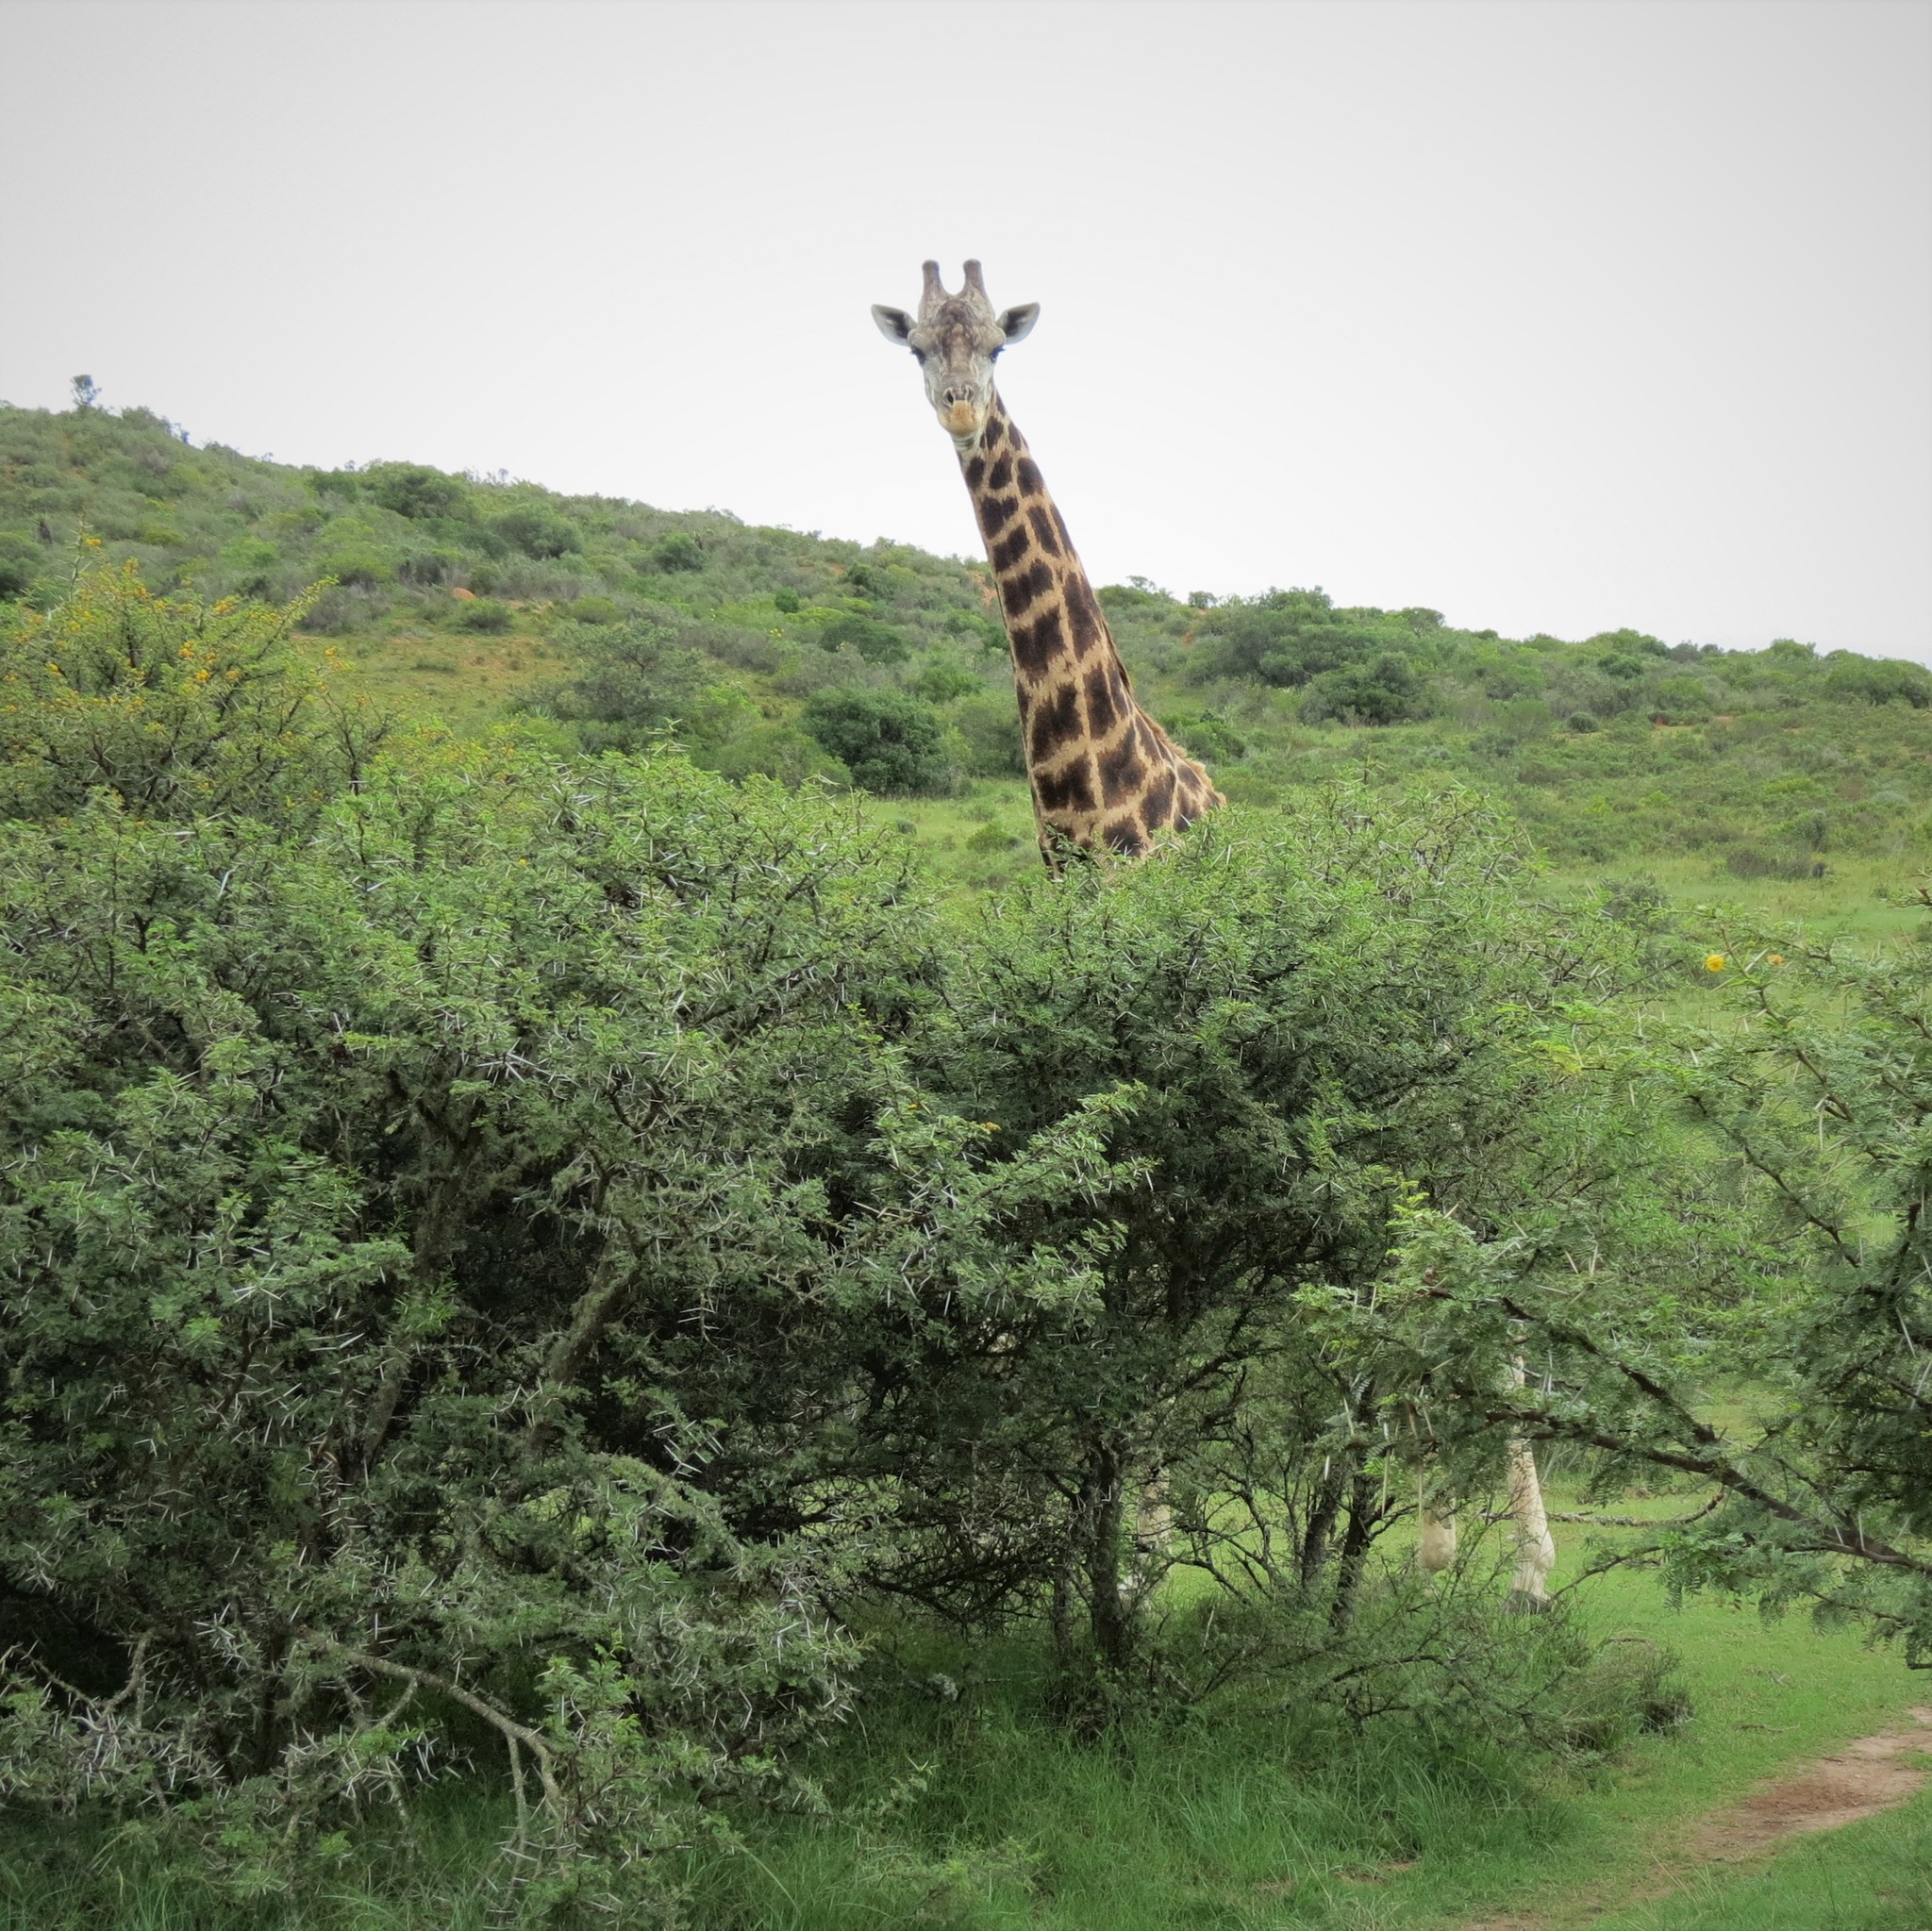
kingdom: Animalia
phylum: Chordata
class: Mammalia
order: Artiodactyla
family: Giraffidae
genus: Giraffa
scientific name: Giraffa giraffa
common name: Southern giraffe
